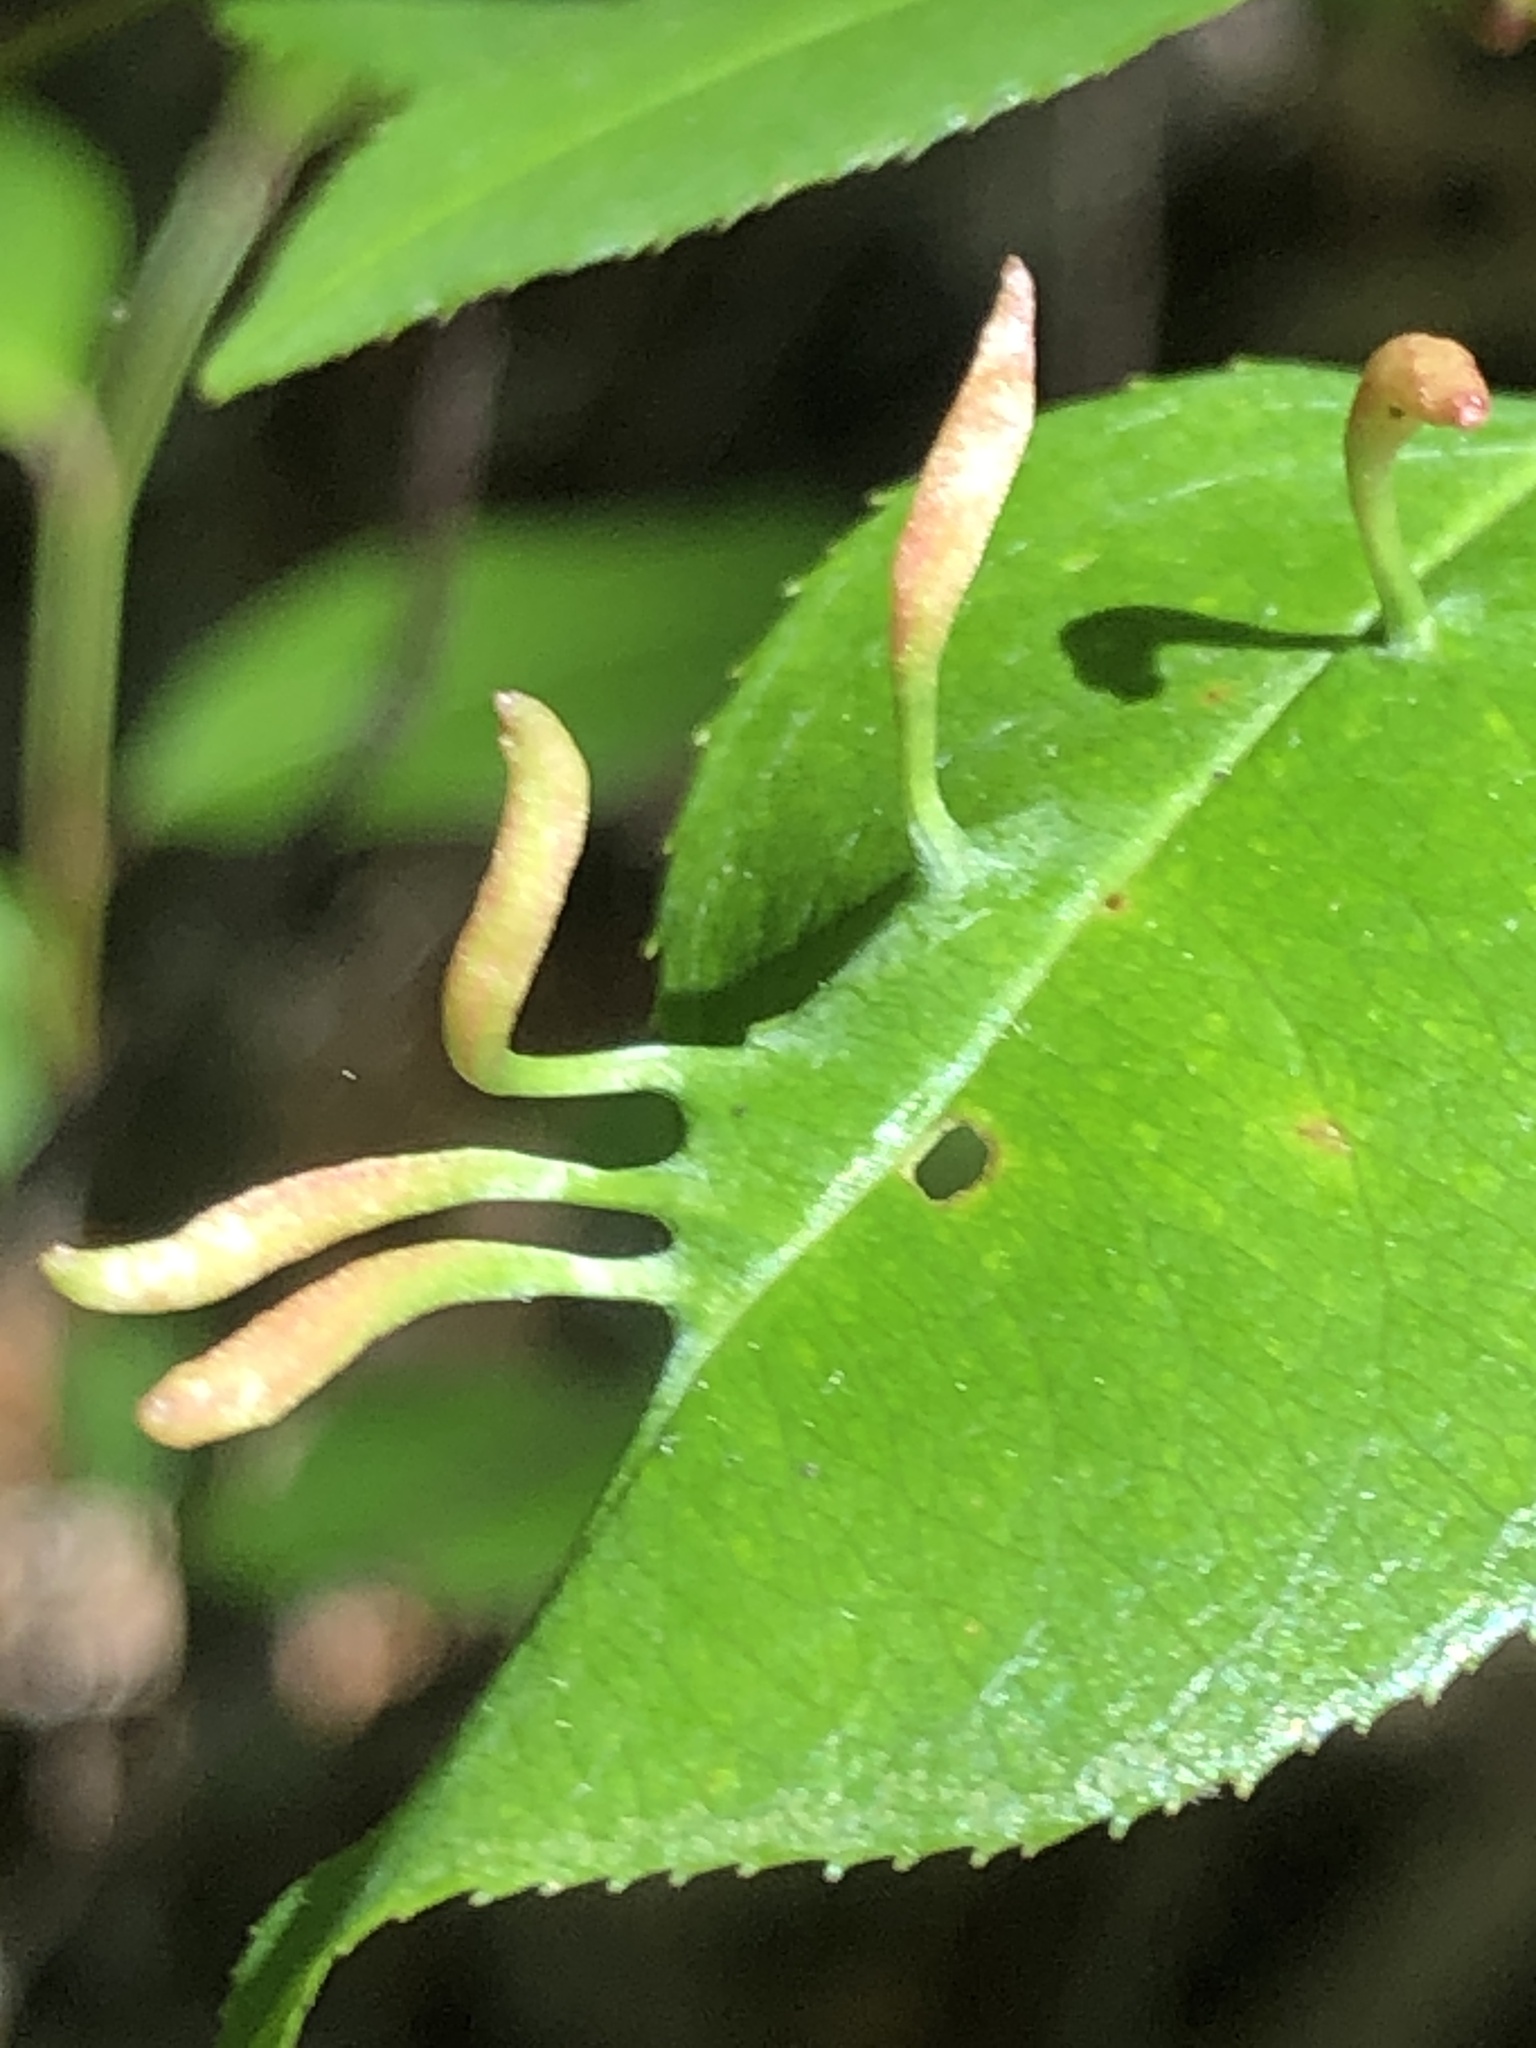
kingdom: Animalia
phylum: Arthropoda
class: Arachnida
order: Trombidiformes
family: Eriophyidae
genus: Eriophyes
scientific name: Eriophyes
